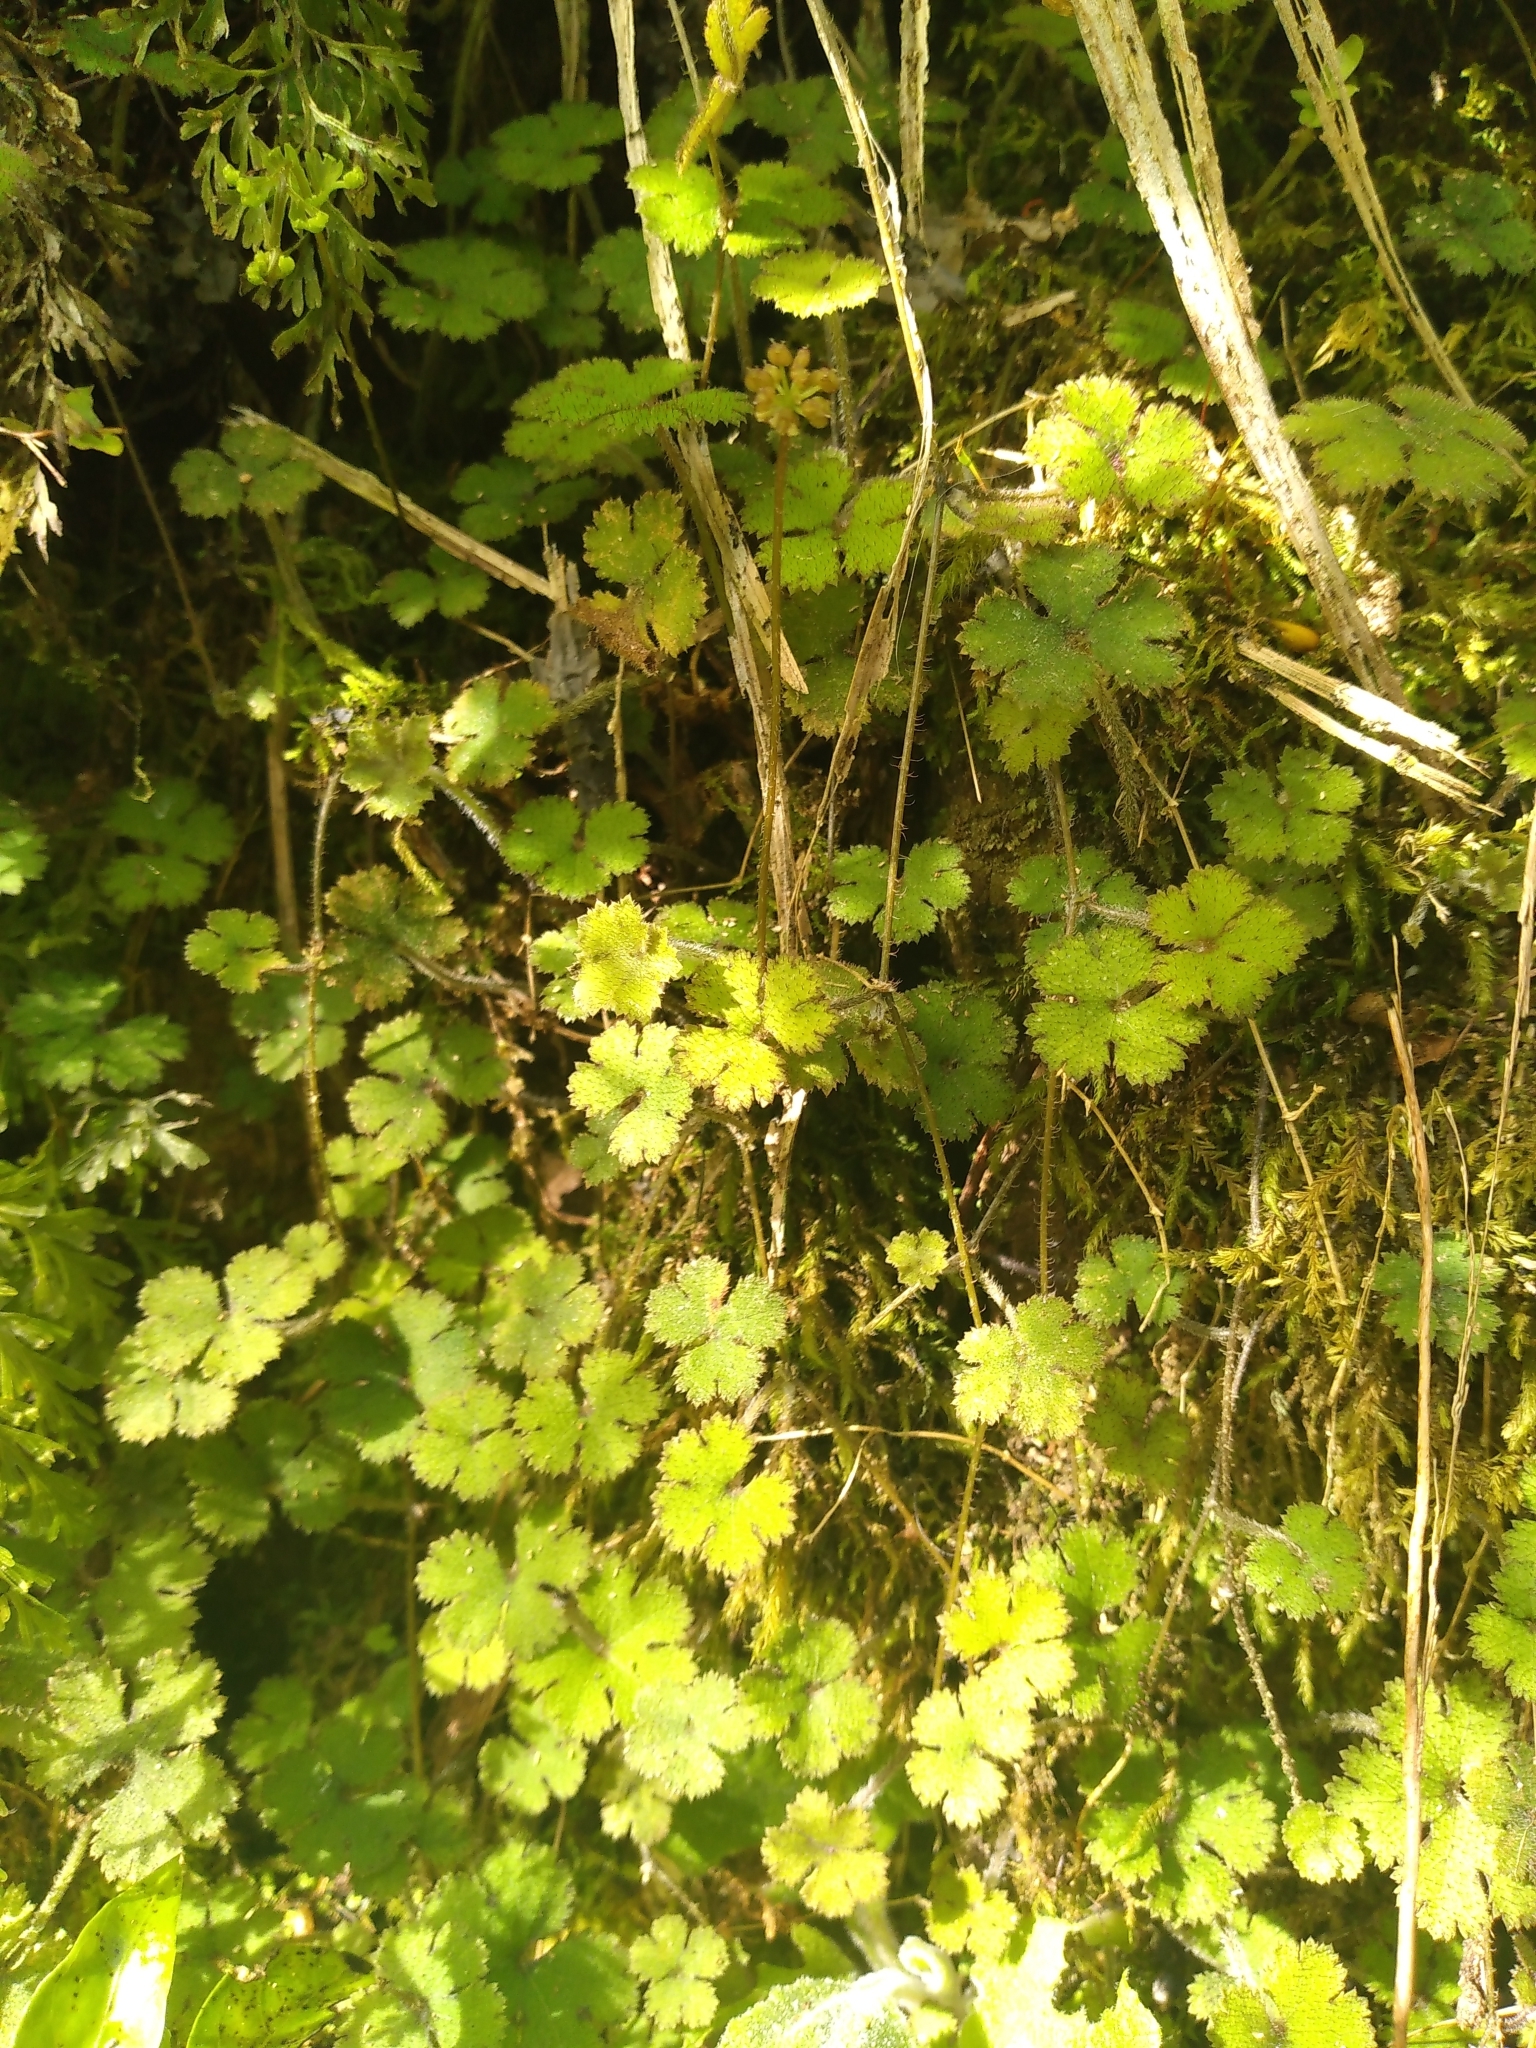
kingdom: Plantae
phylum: Tracheophyta
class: Magnoliopsida
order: Apiales
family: Araliaceae
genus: Hydrocotyle
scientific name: Hydrocotyle elongata
